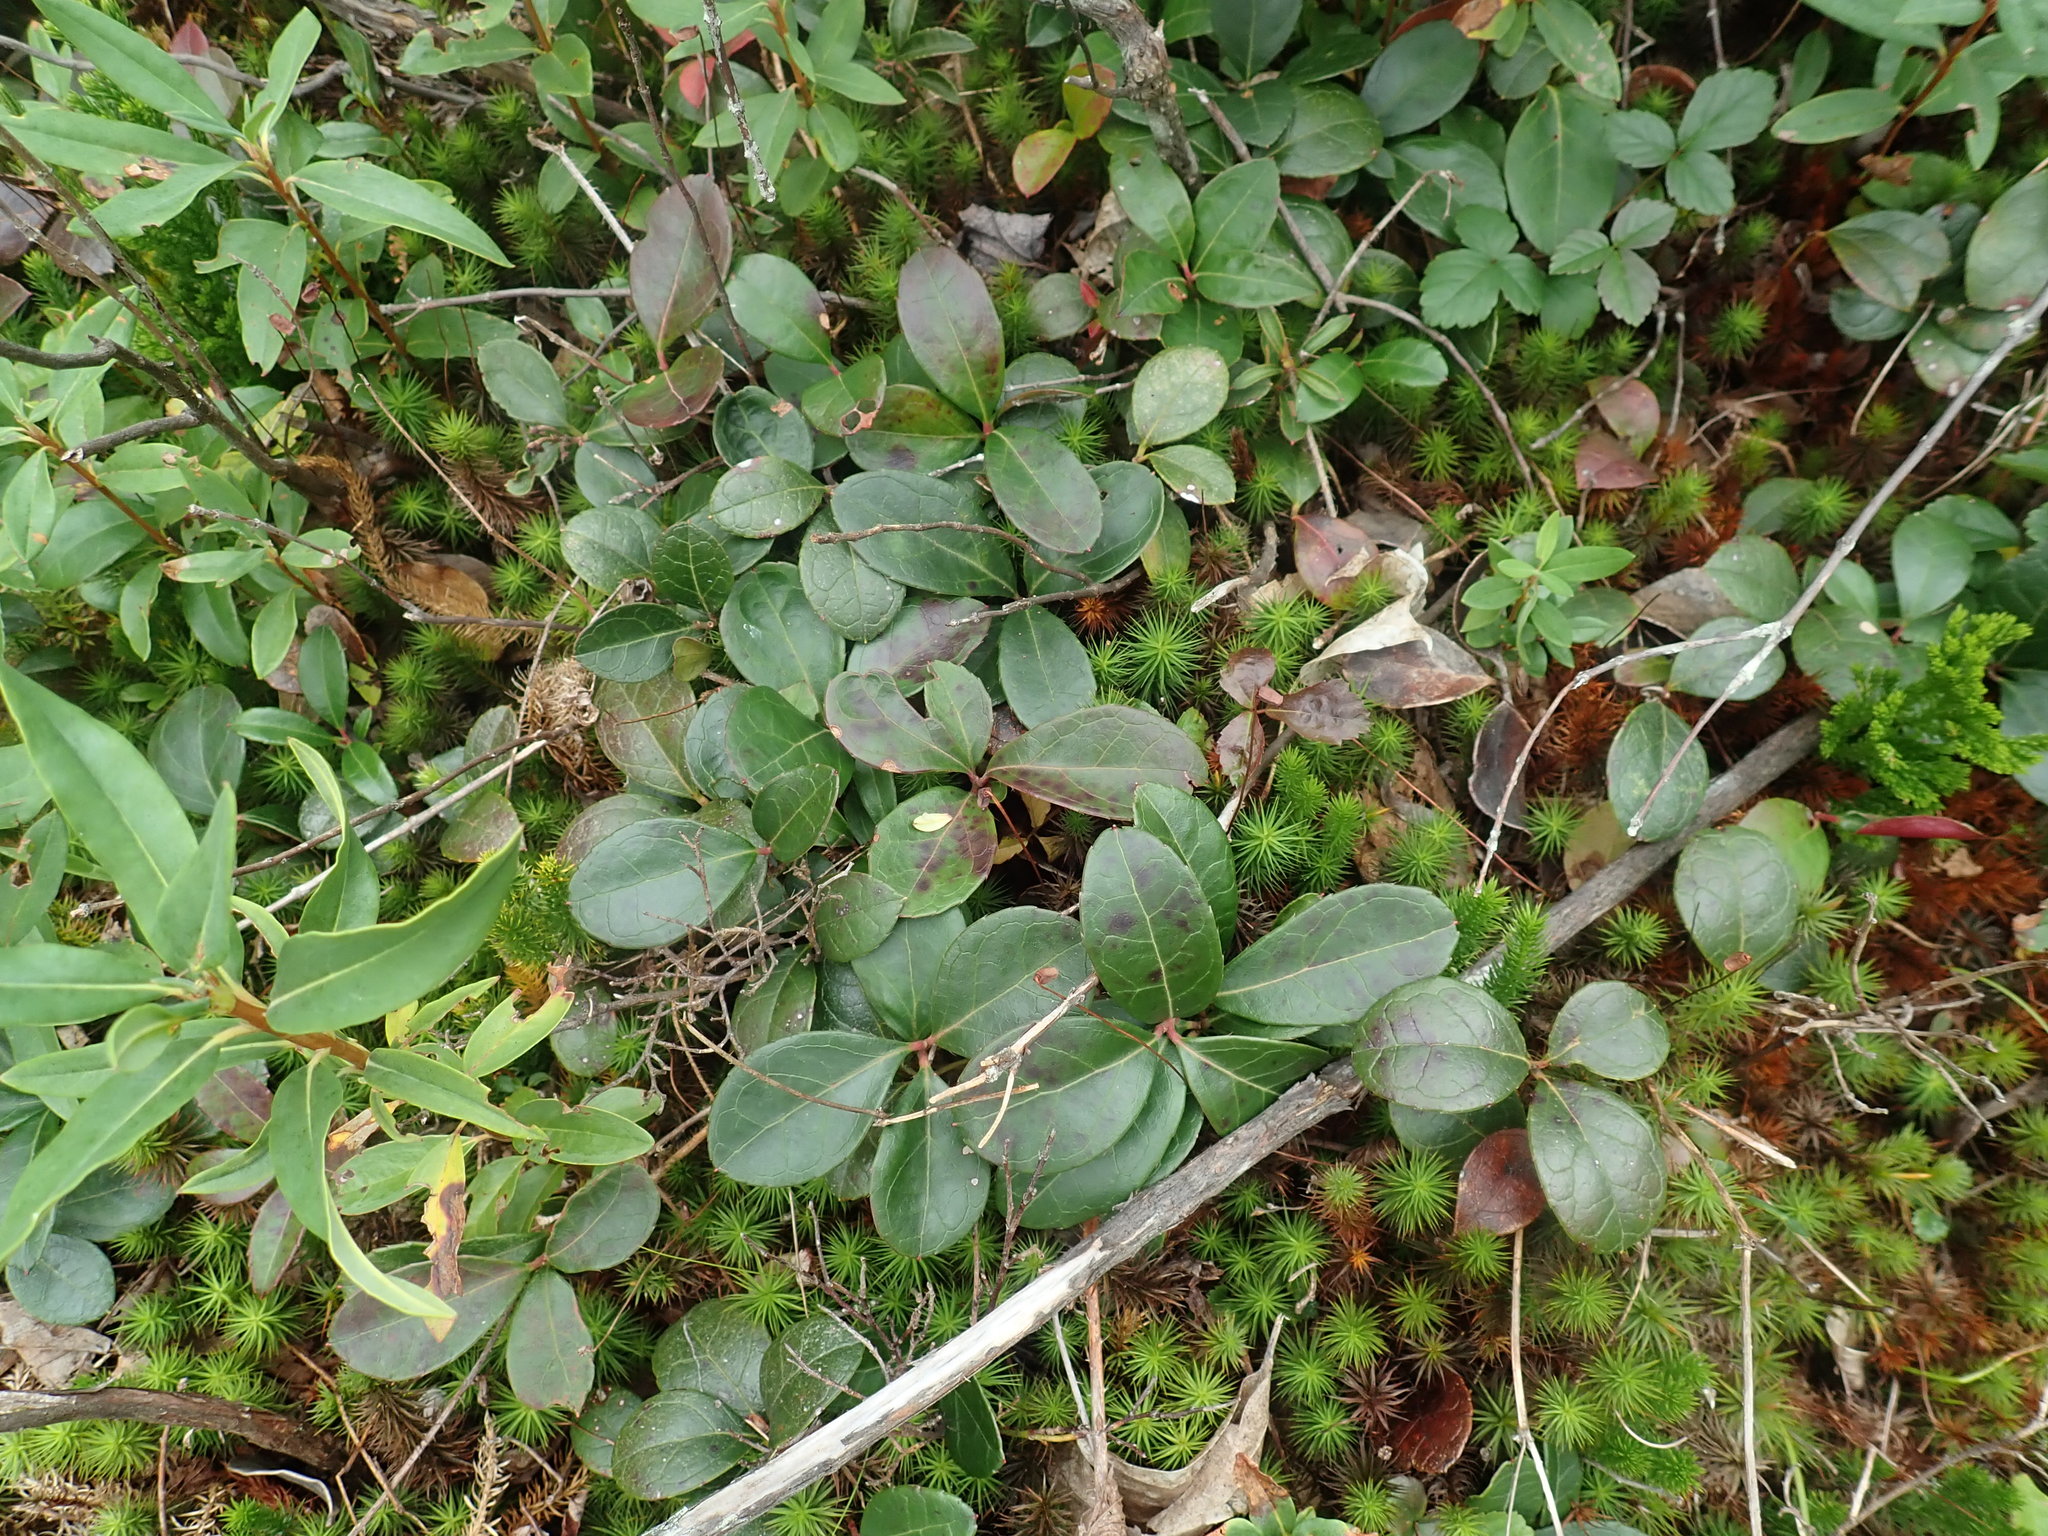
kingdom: Plantae
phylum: Tracheophyta
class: Magnoliopsida
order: Ericales
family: Ericaceae
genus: Gaultheria
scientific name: Gaultheria procumbens
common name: Checkerberry
